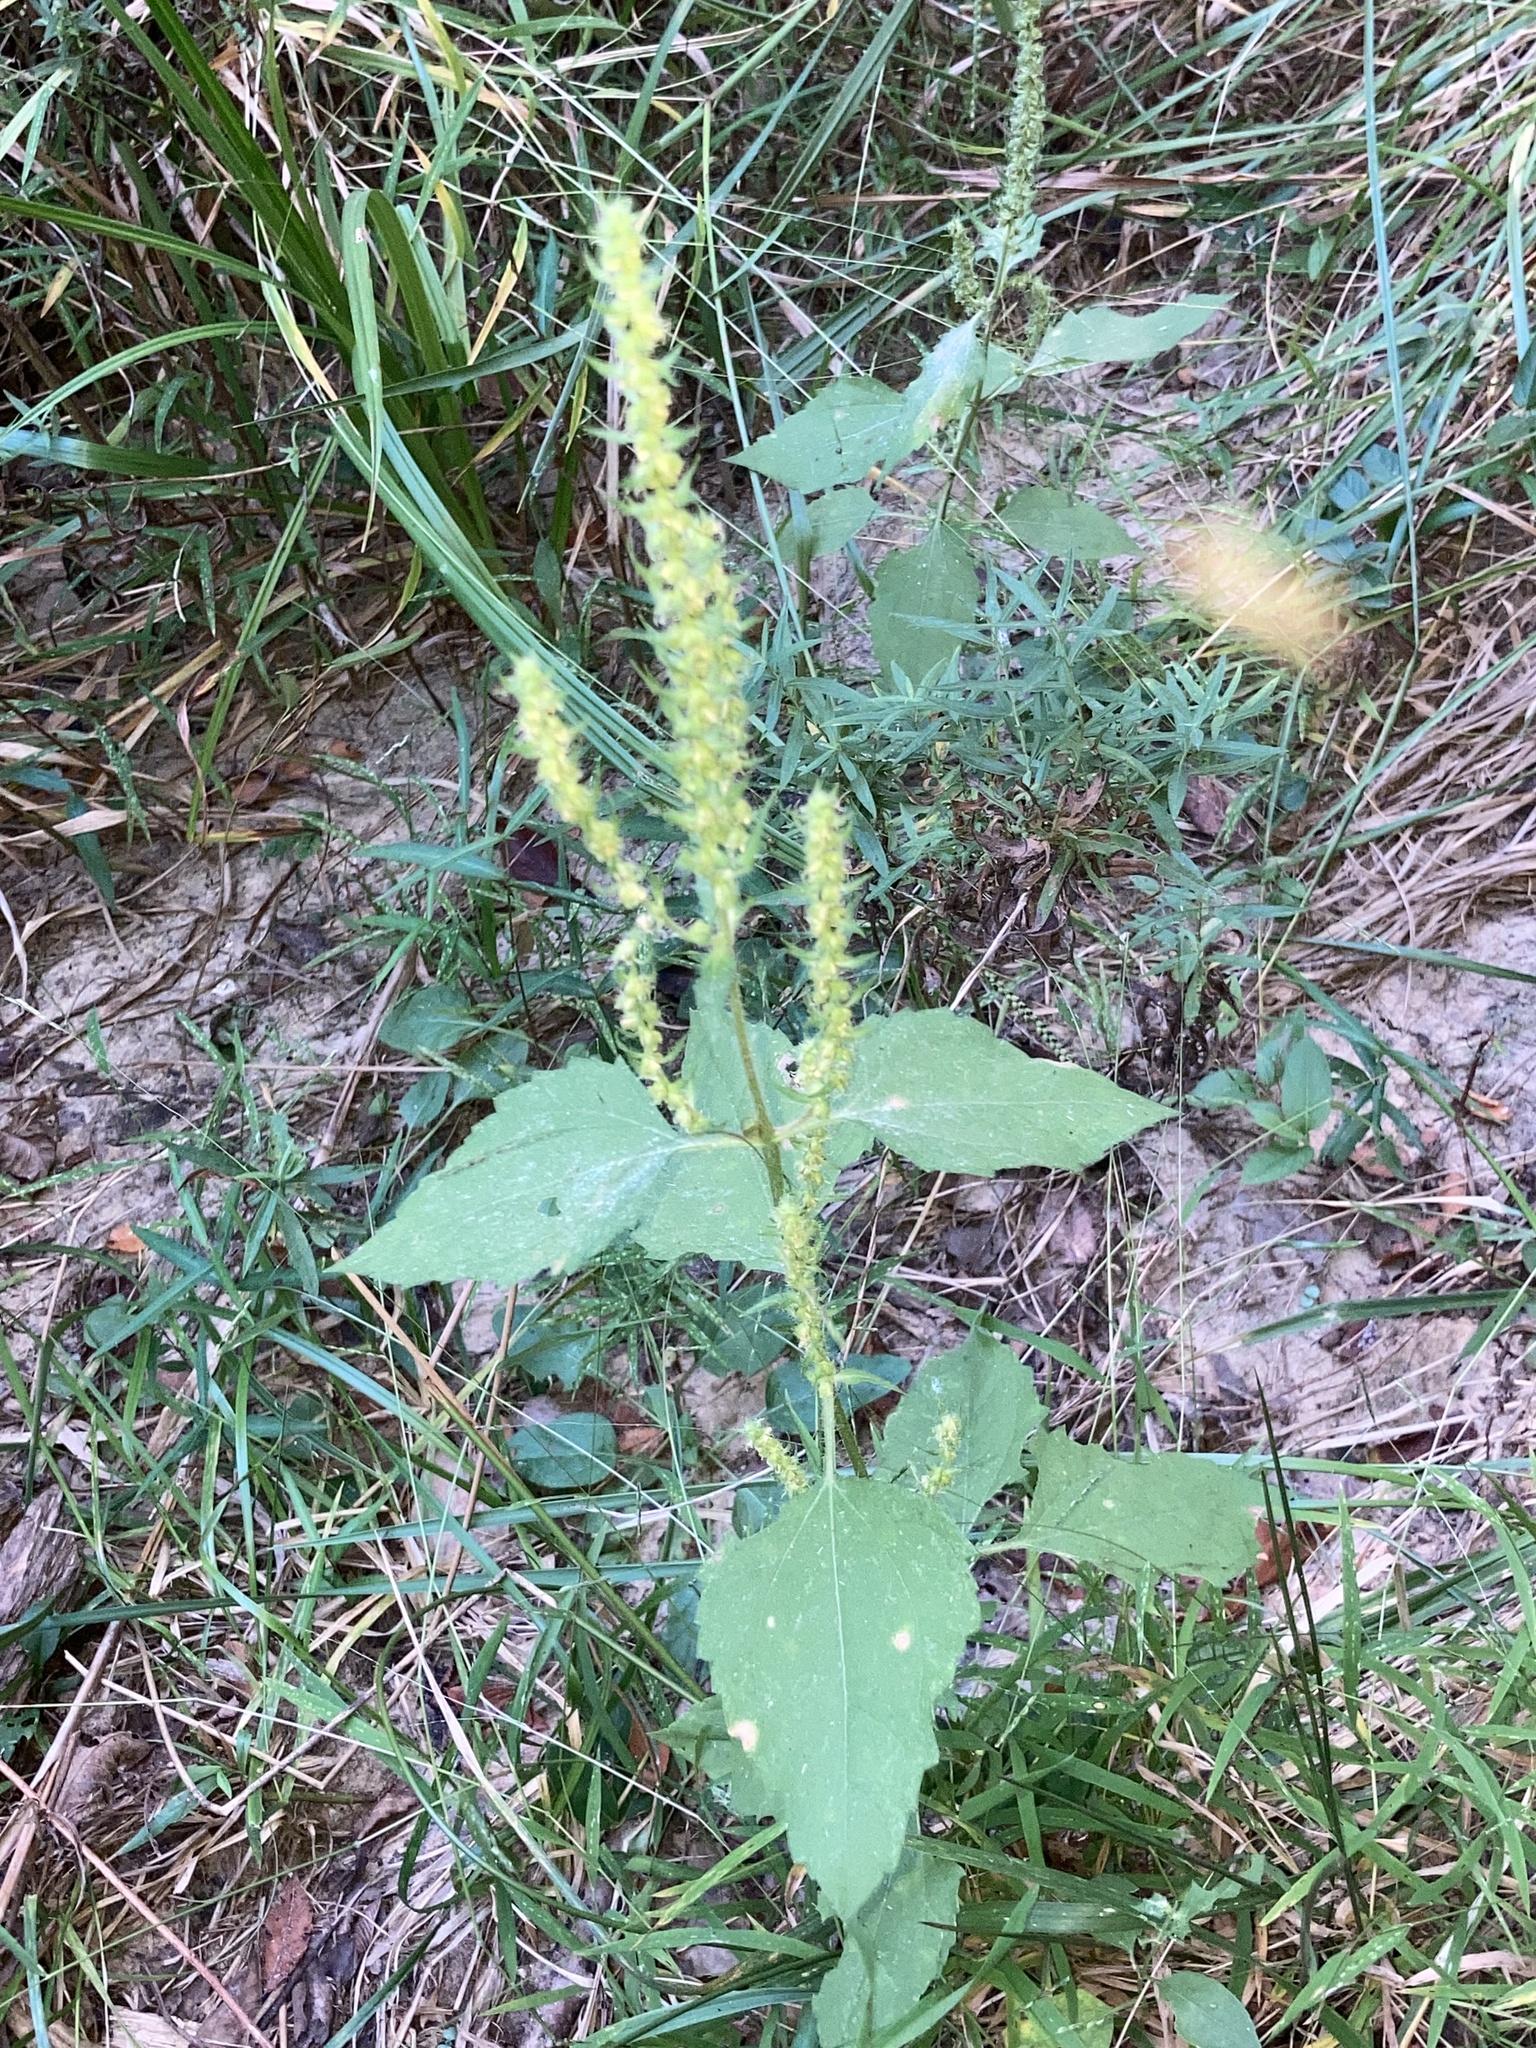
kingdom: Plantae
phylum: Tracheophyta
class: Magnoliopsida
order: Asterales
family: Asteraceae
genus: Iva
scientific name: Iva annua
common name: Marsh-elder
